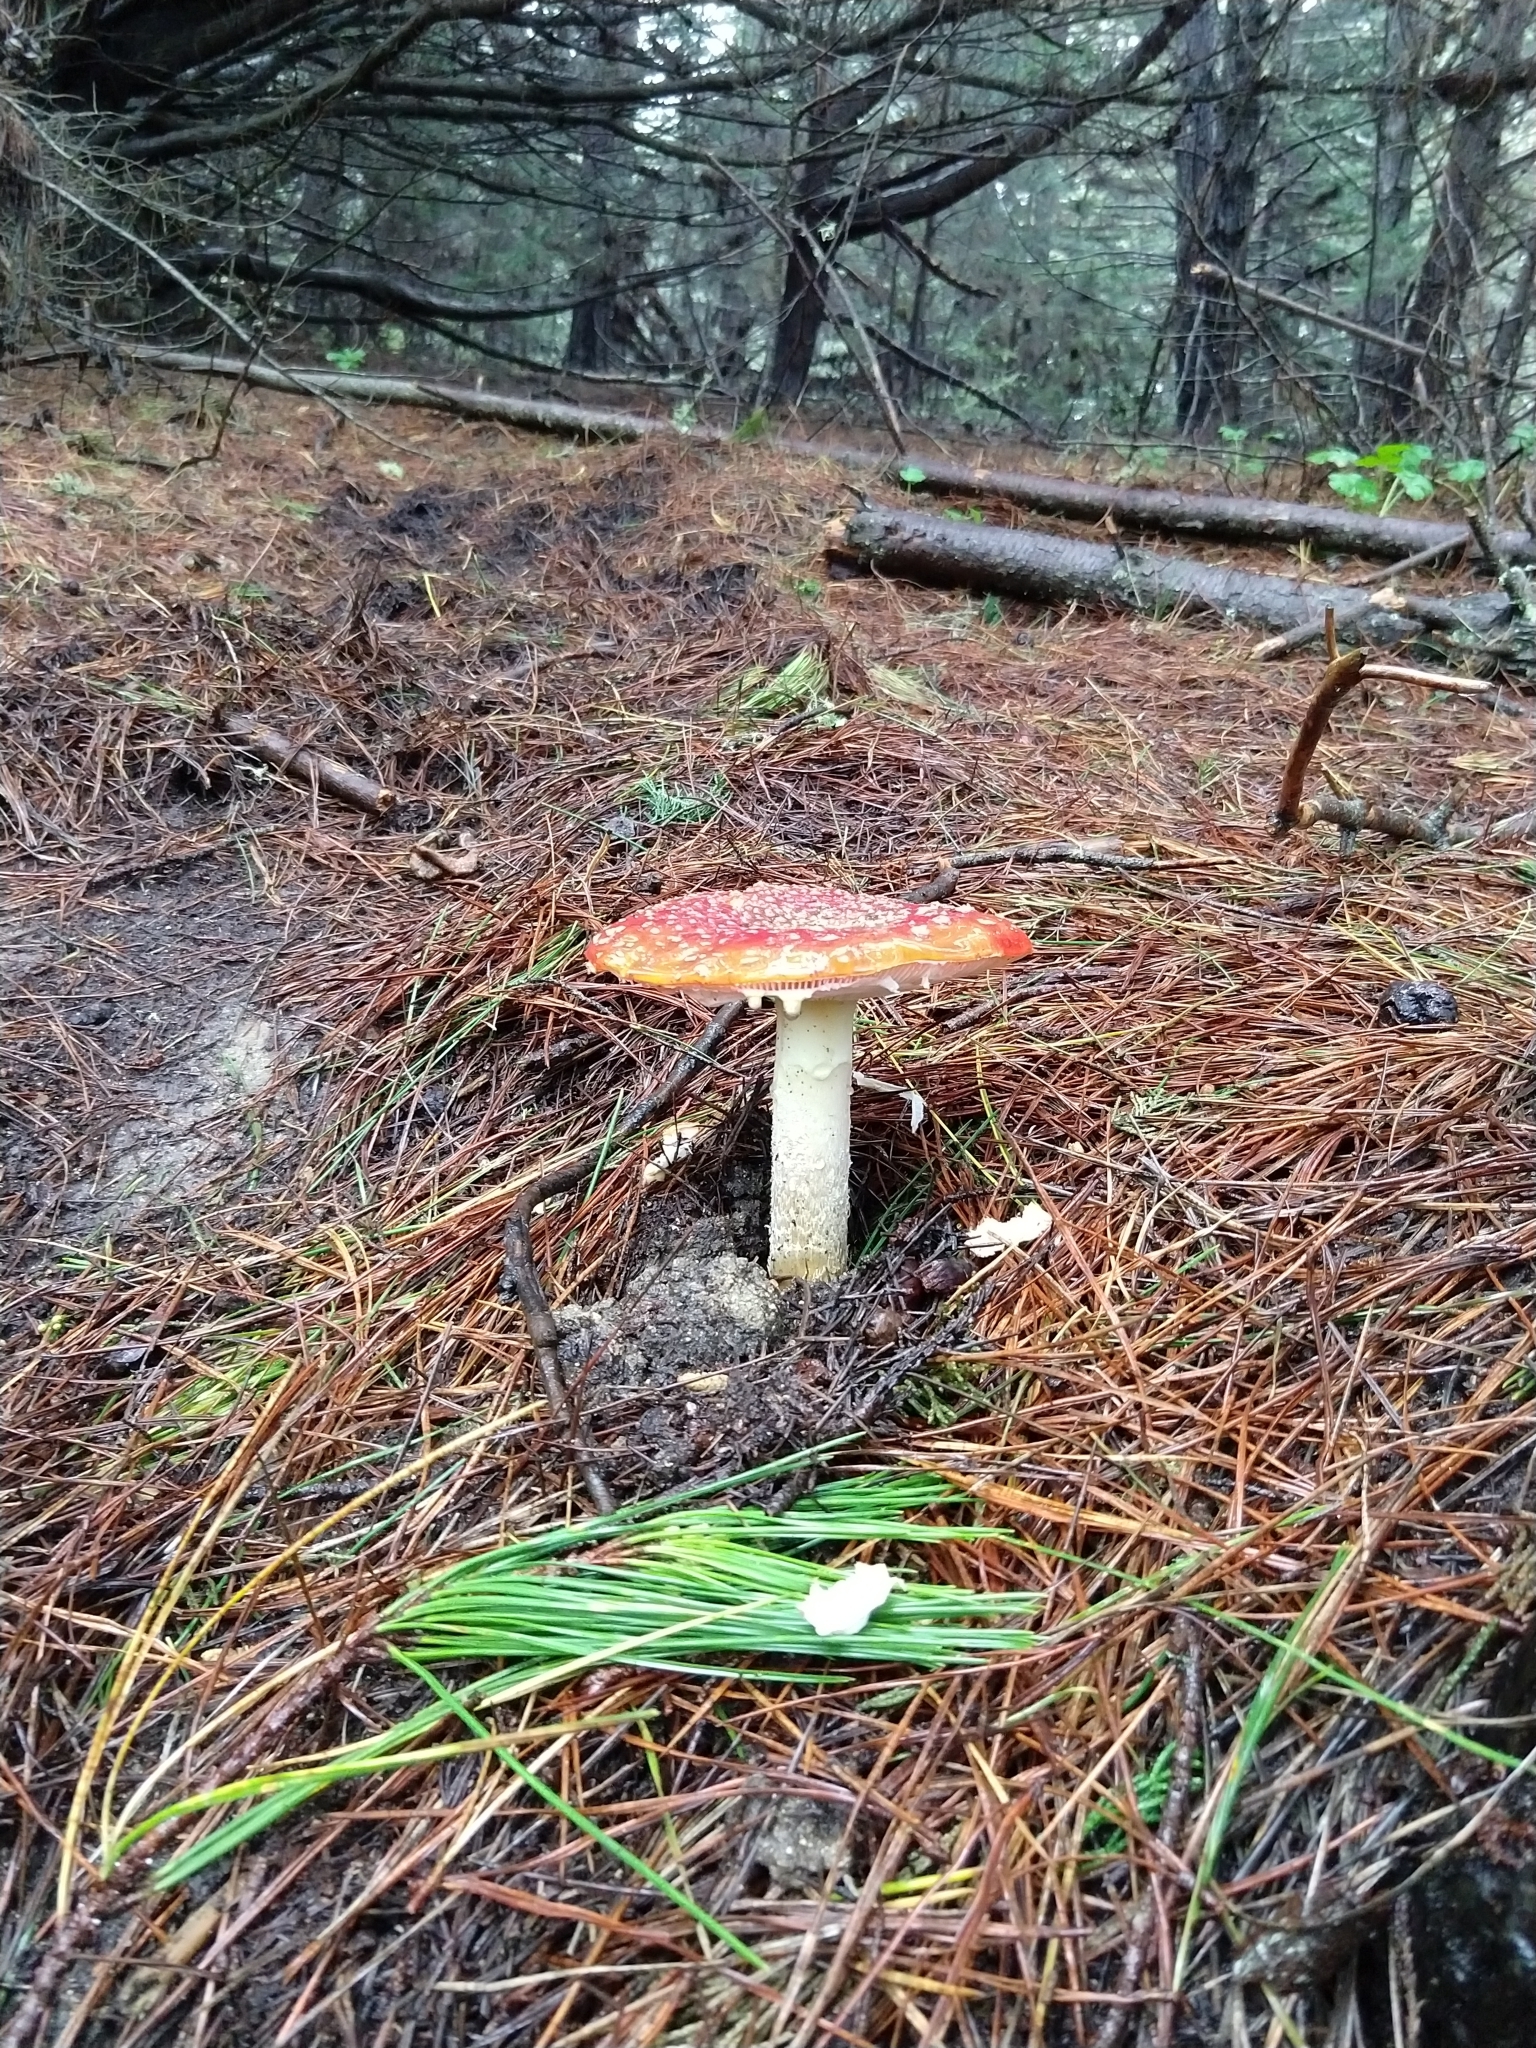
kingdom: Fungi
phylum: Basidiomycota
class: Agaricomycetes
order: Agaricales
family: Amanitaceae
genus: Amanita
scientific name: Amanita muscaria
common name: Fly agaric
